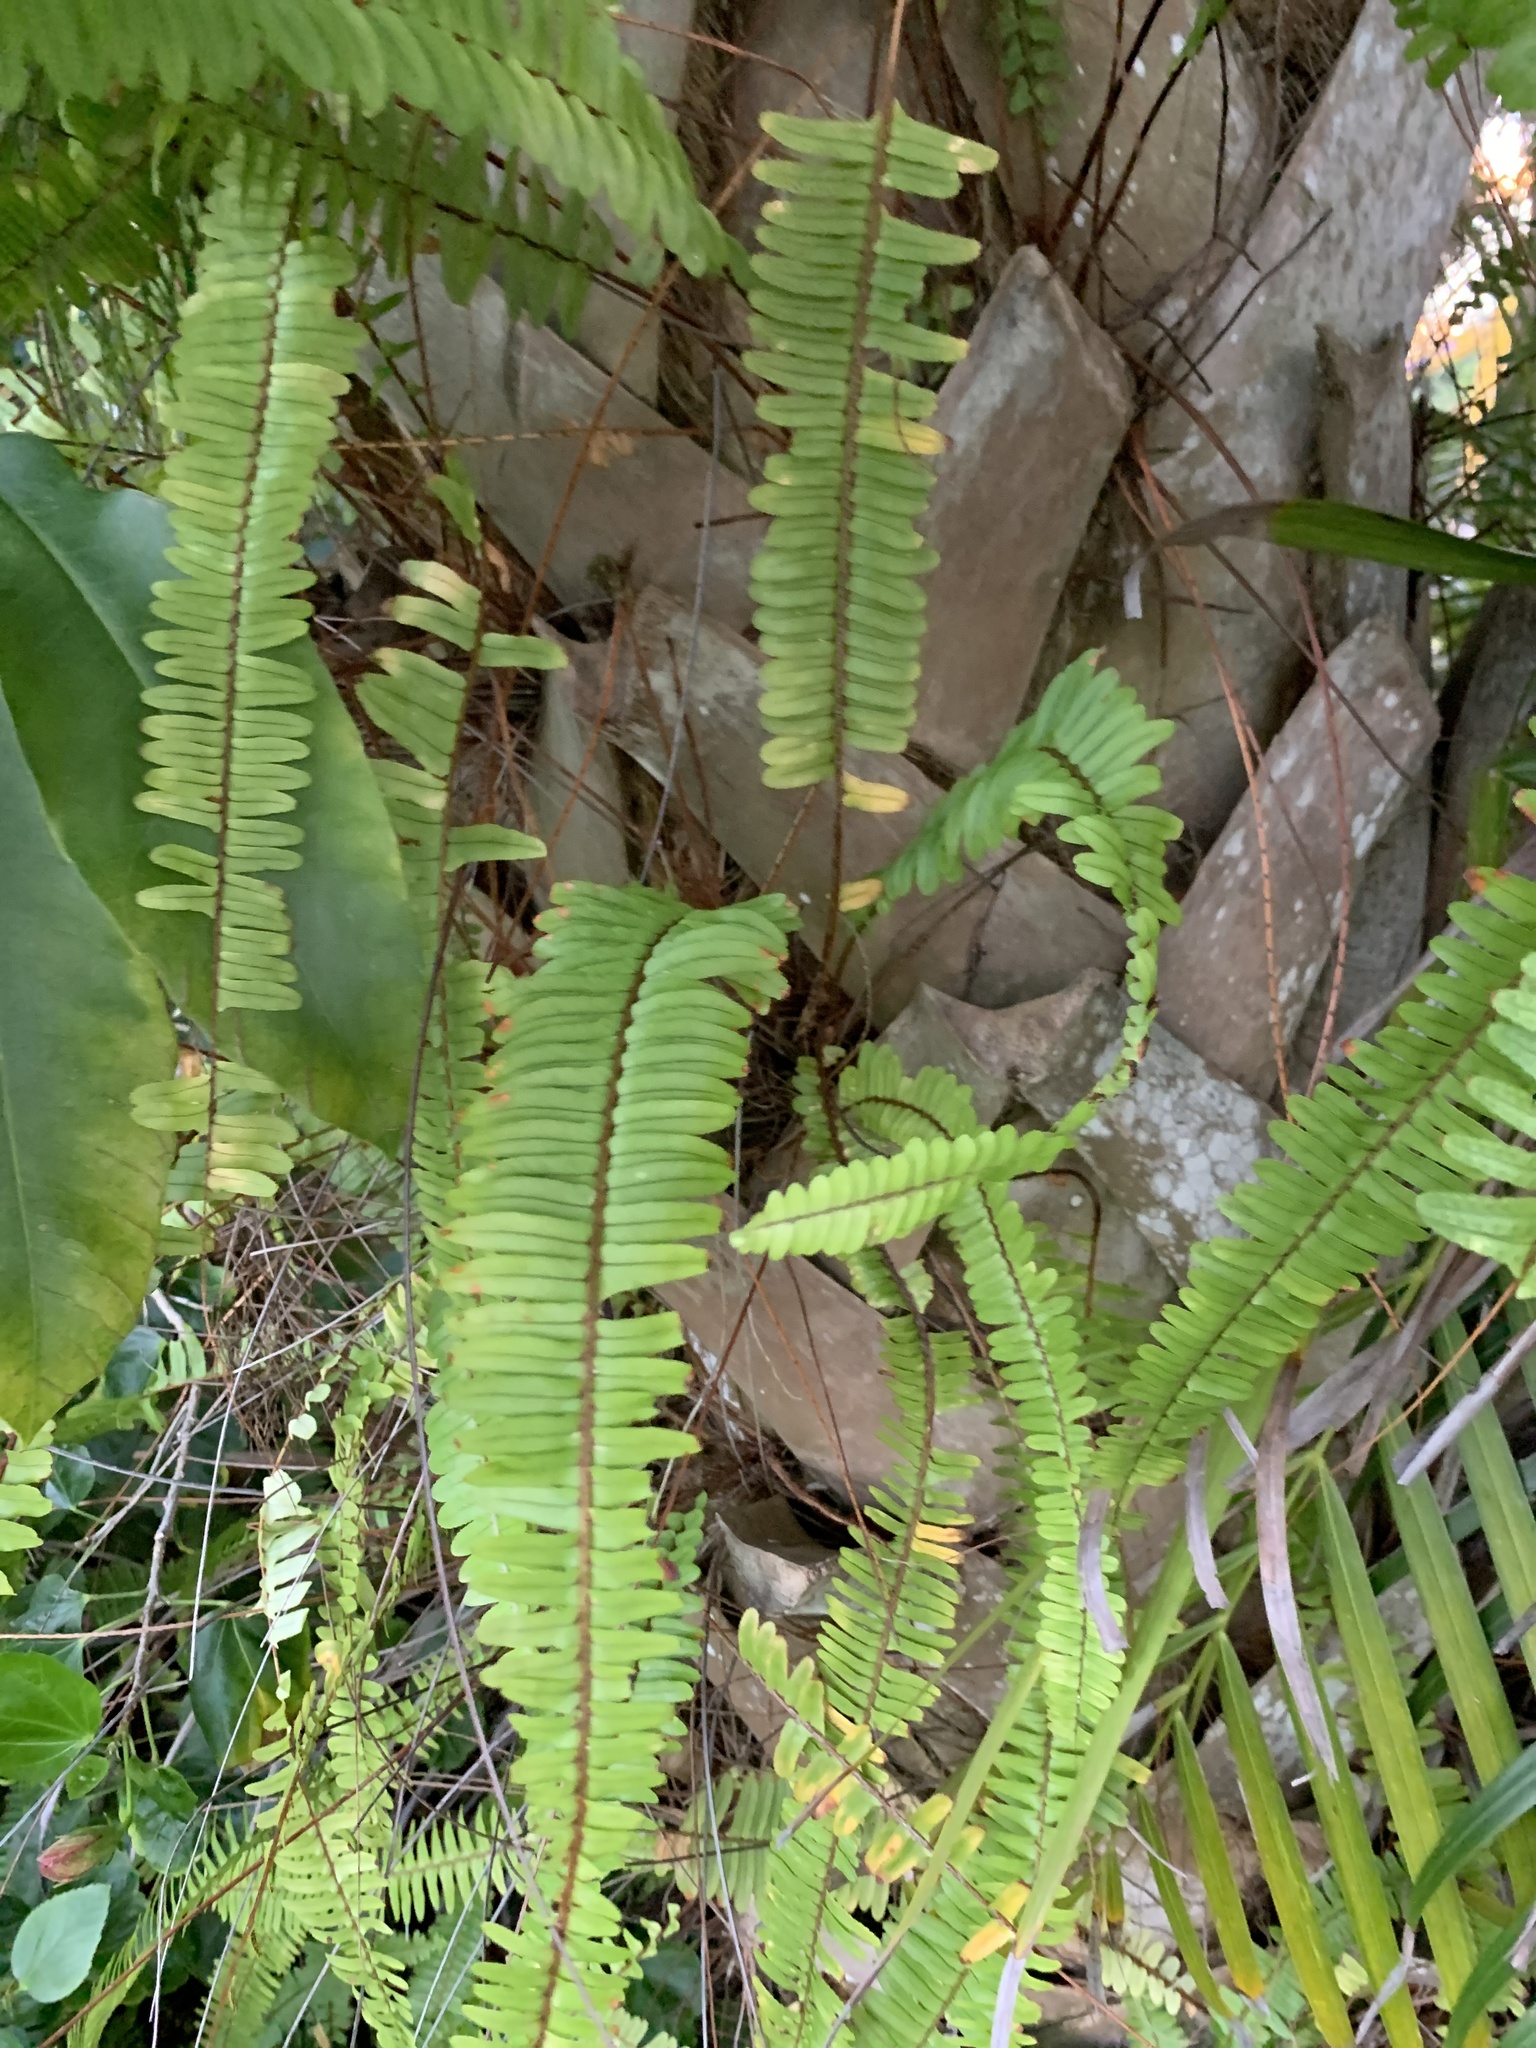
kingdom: Plantae
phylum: Tracheophyta
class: Polypodiopsida
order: Polypodiales
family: Nephrolepidaceae
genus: Nephrolepis
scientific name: Nephrolepis cordifolia
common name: Narrow swordfern
